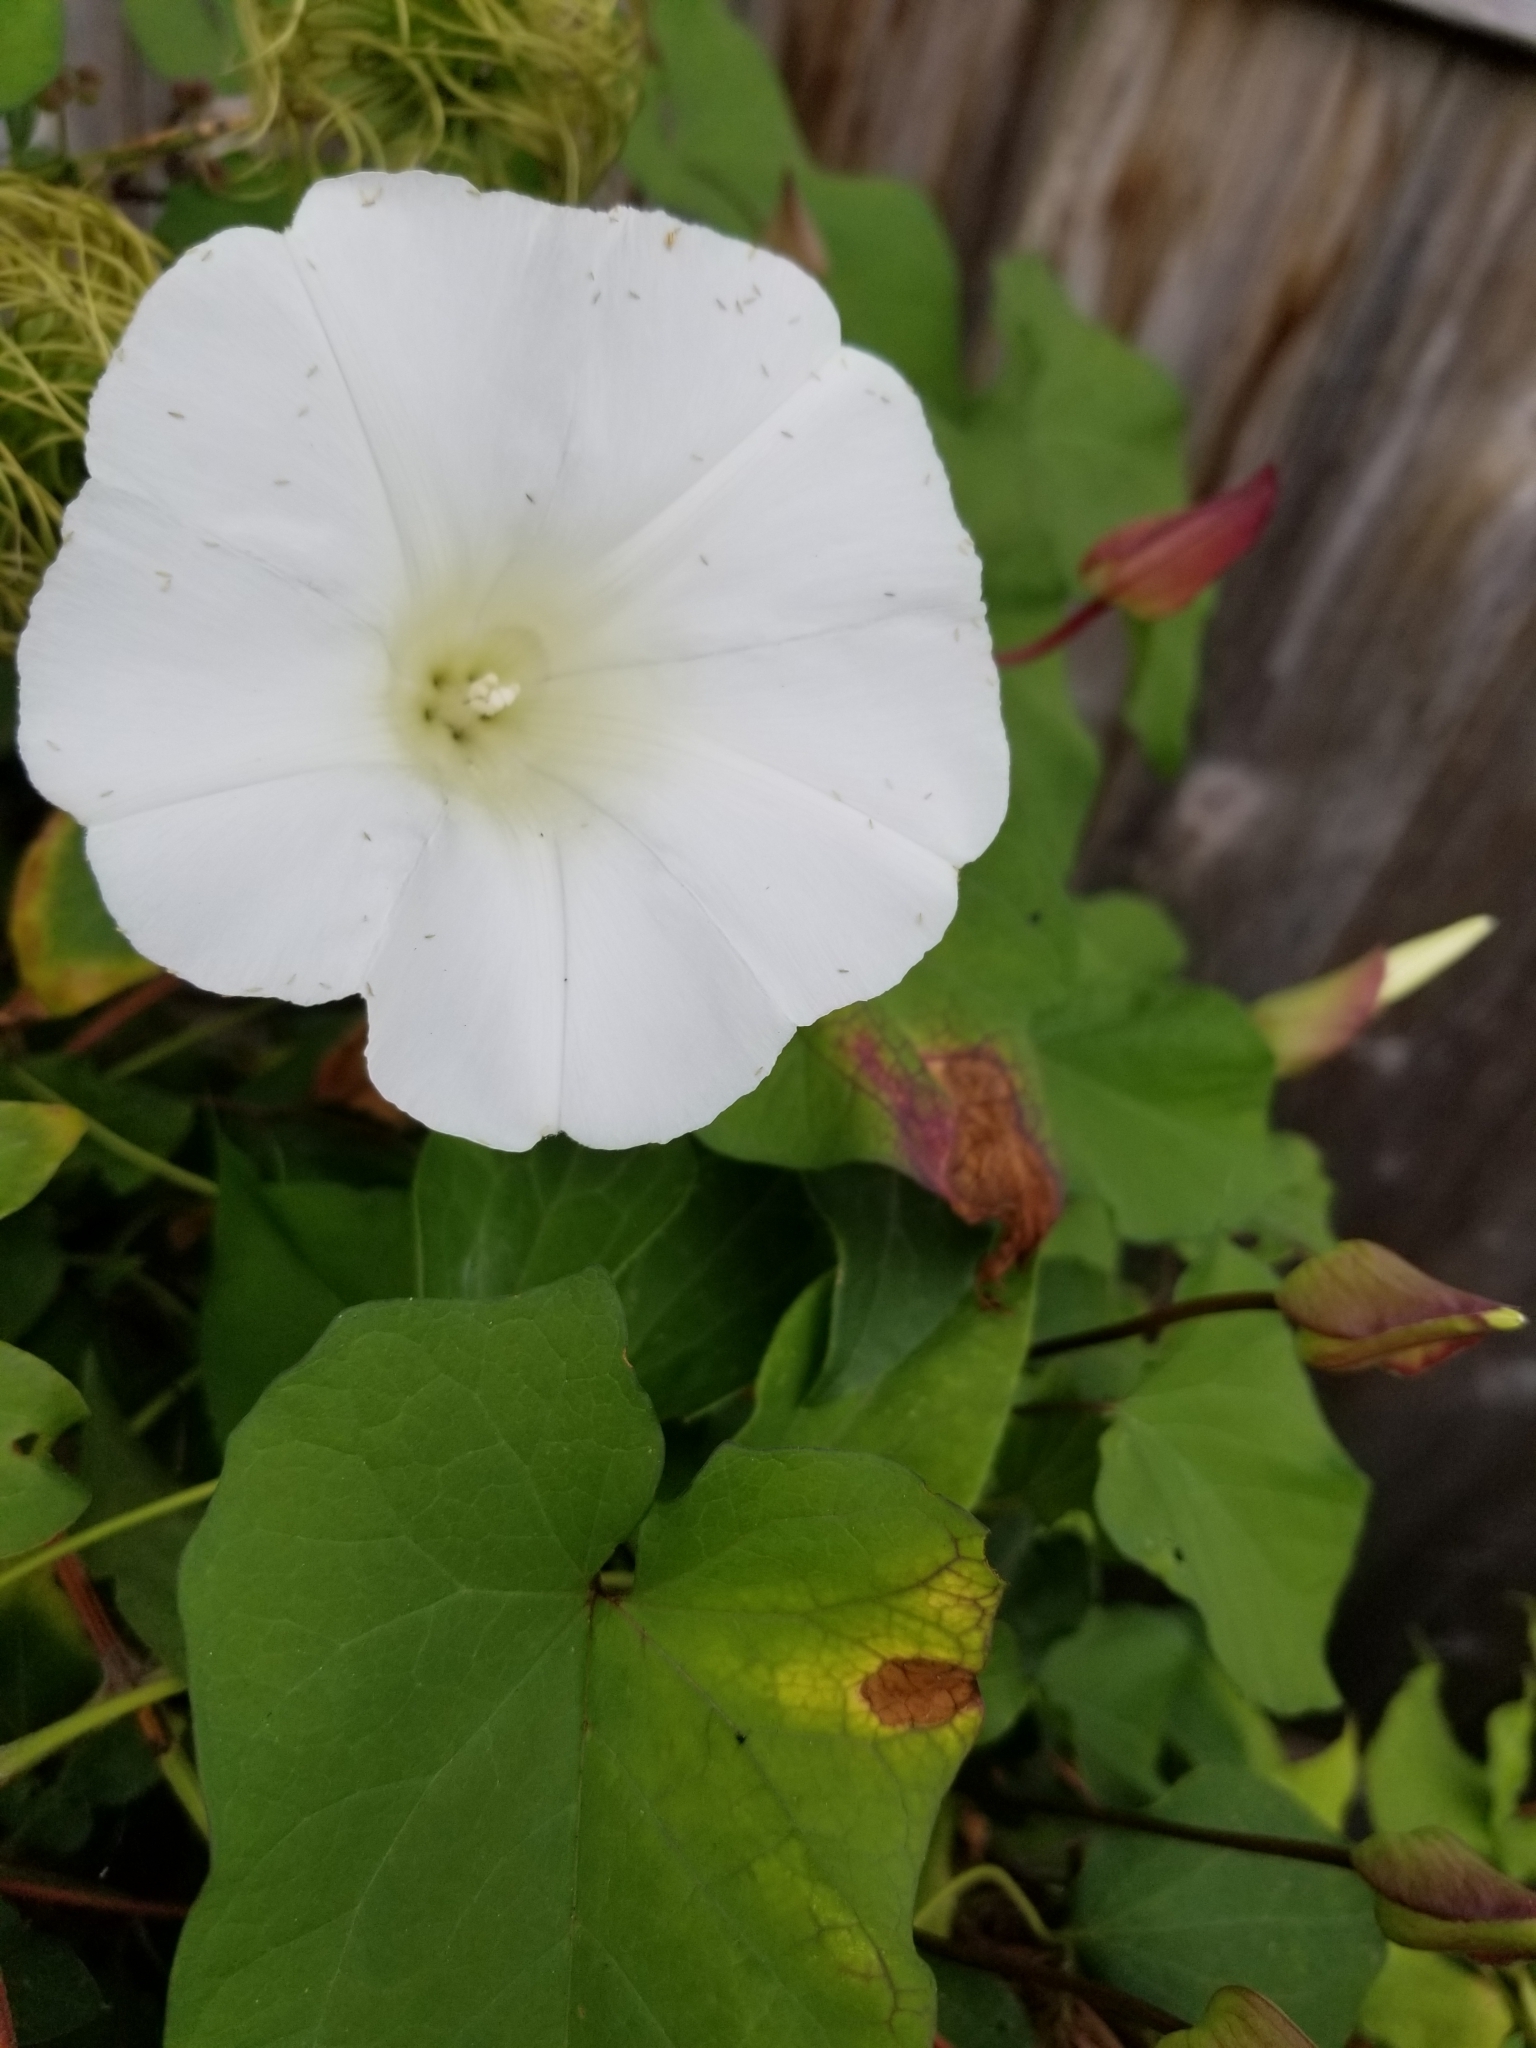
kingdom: Plantae
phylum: Tracheophyta
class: Magnoliopsida
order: Solanales
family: Convolvulaceae
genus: Calystegia
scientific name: Calystegia silvatica
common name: Large bindweed
